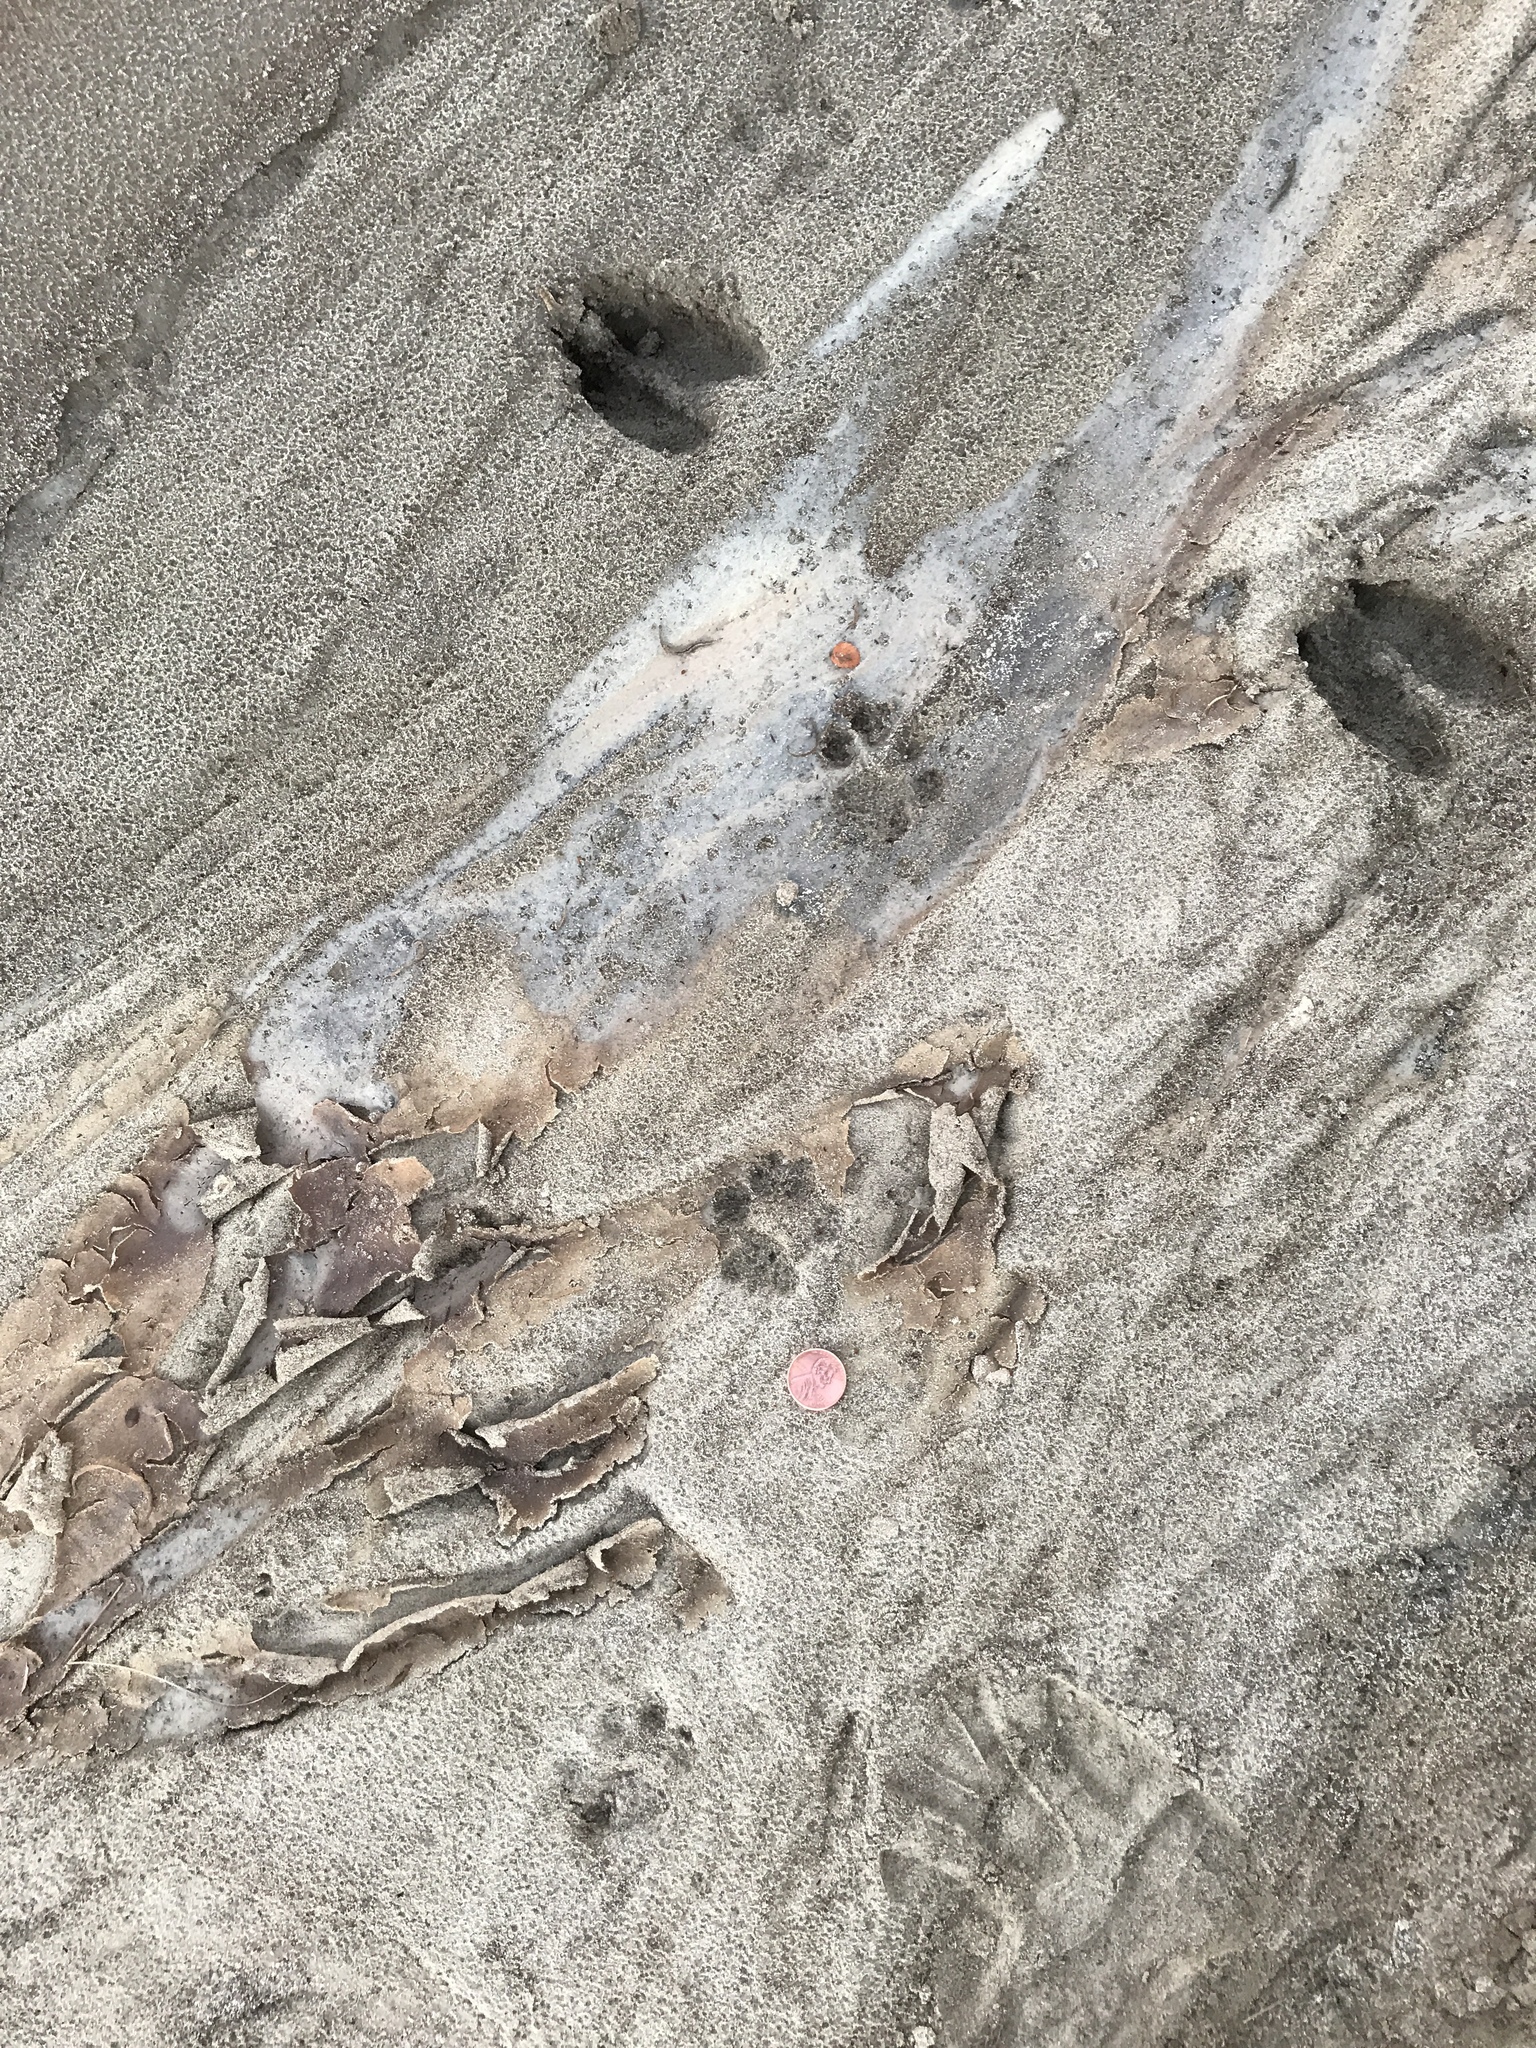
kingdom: Animalia
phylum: Chordata
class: Mammalia
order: Carnivora
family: Felidae
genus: Lynx
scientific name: Lynx rufus
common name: Bobcat
